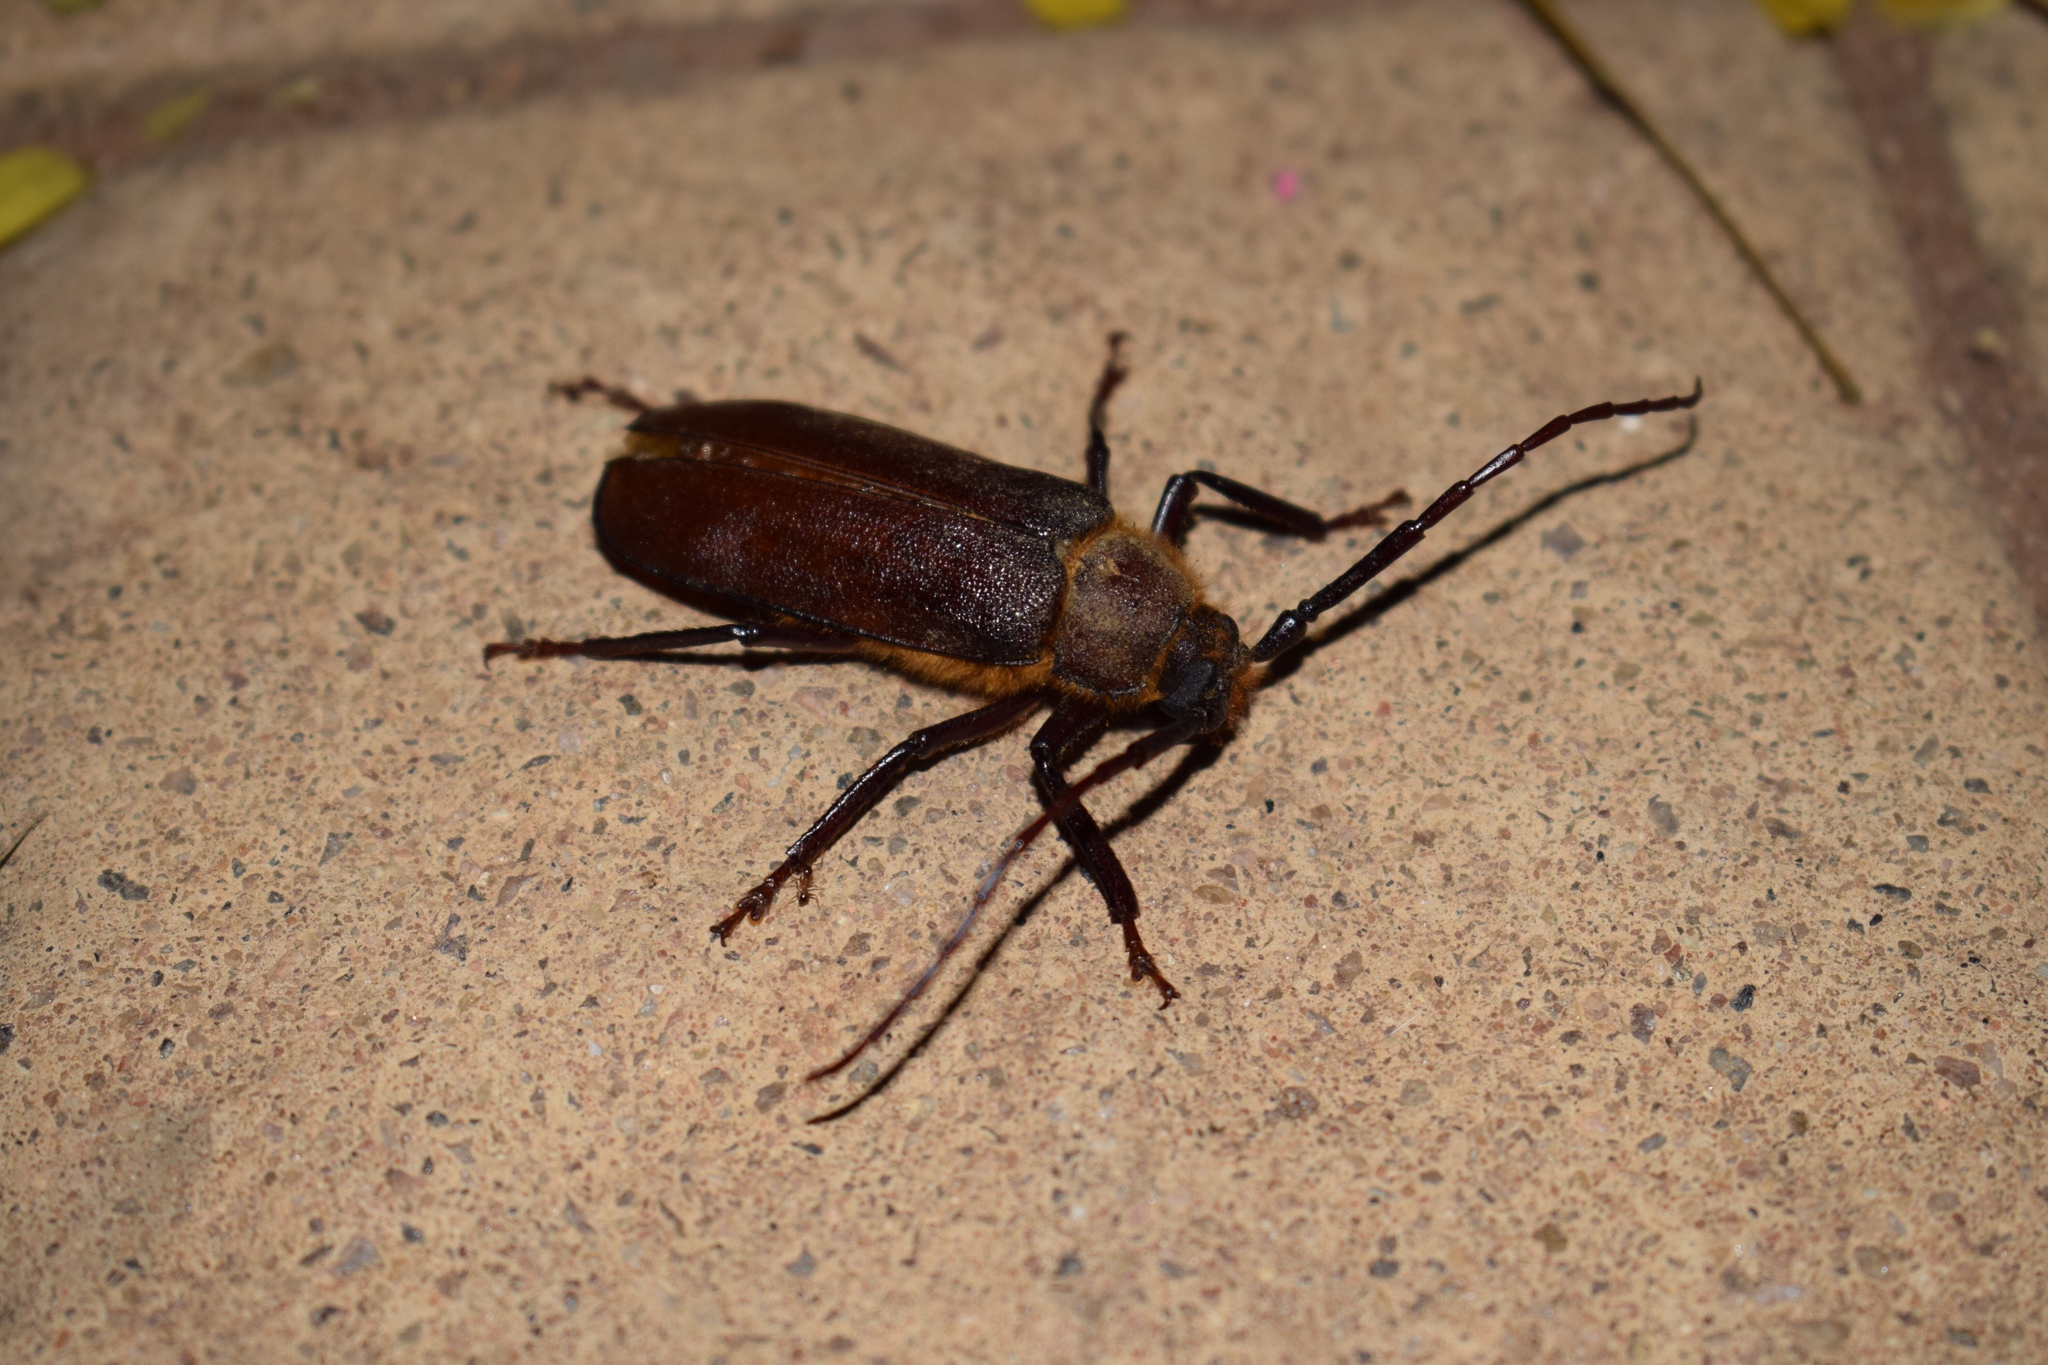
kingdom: Animalia
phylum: Arthropoda
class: Insecta
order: Coleoptera
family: Cerambycidae
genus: Erioderus
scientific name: Erioderus candezei
